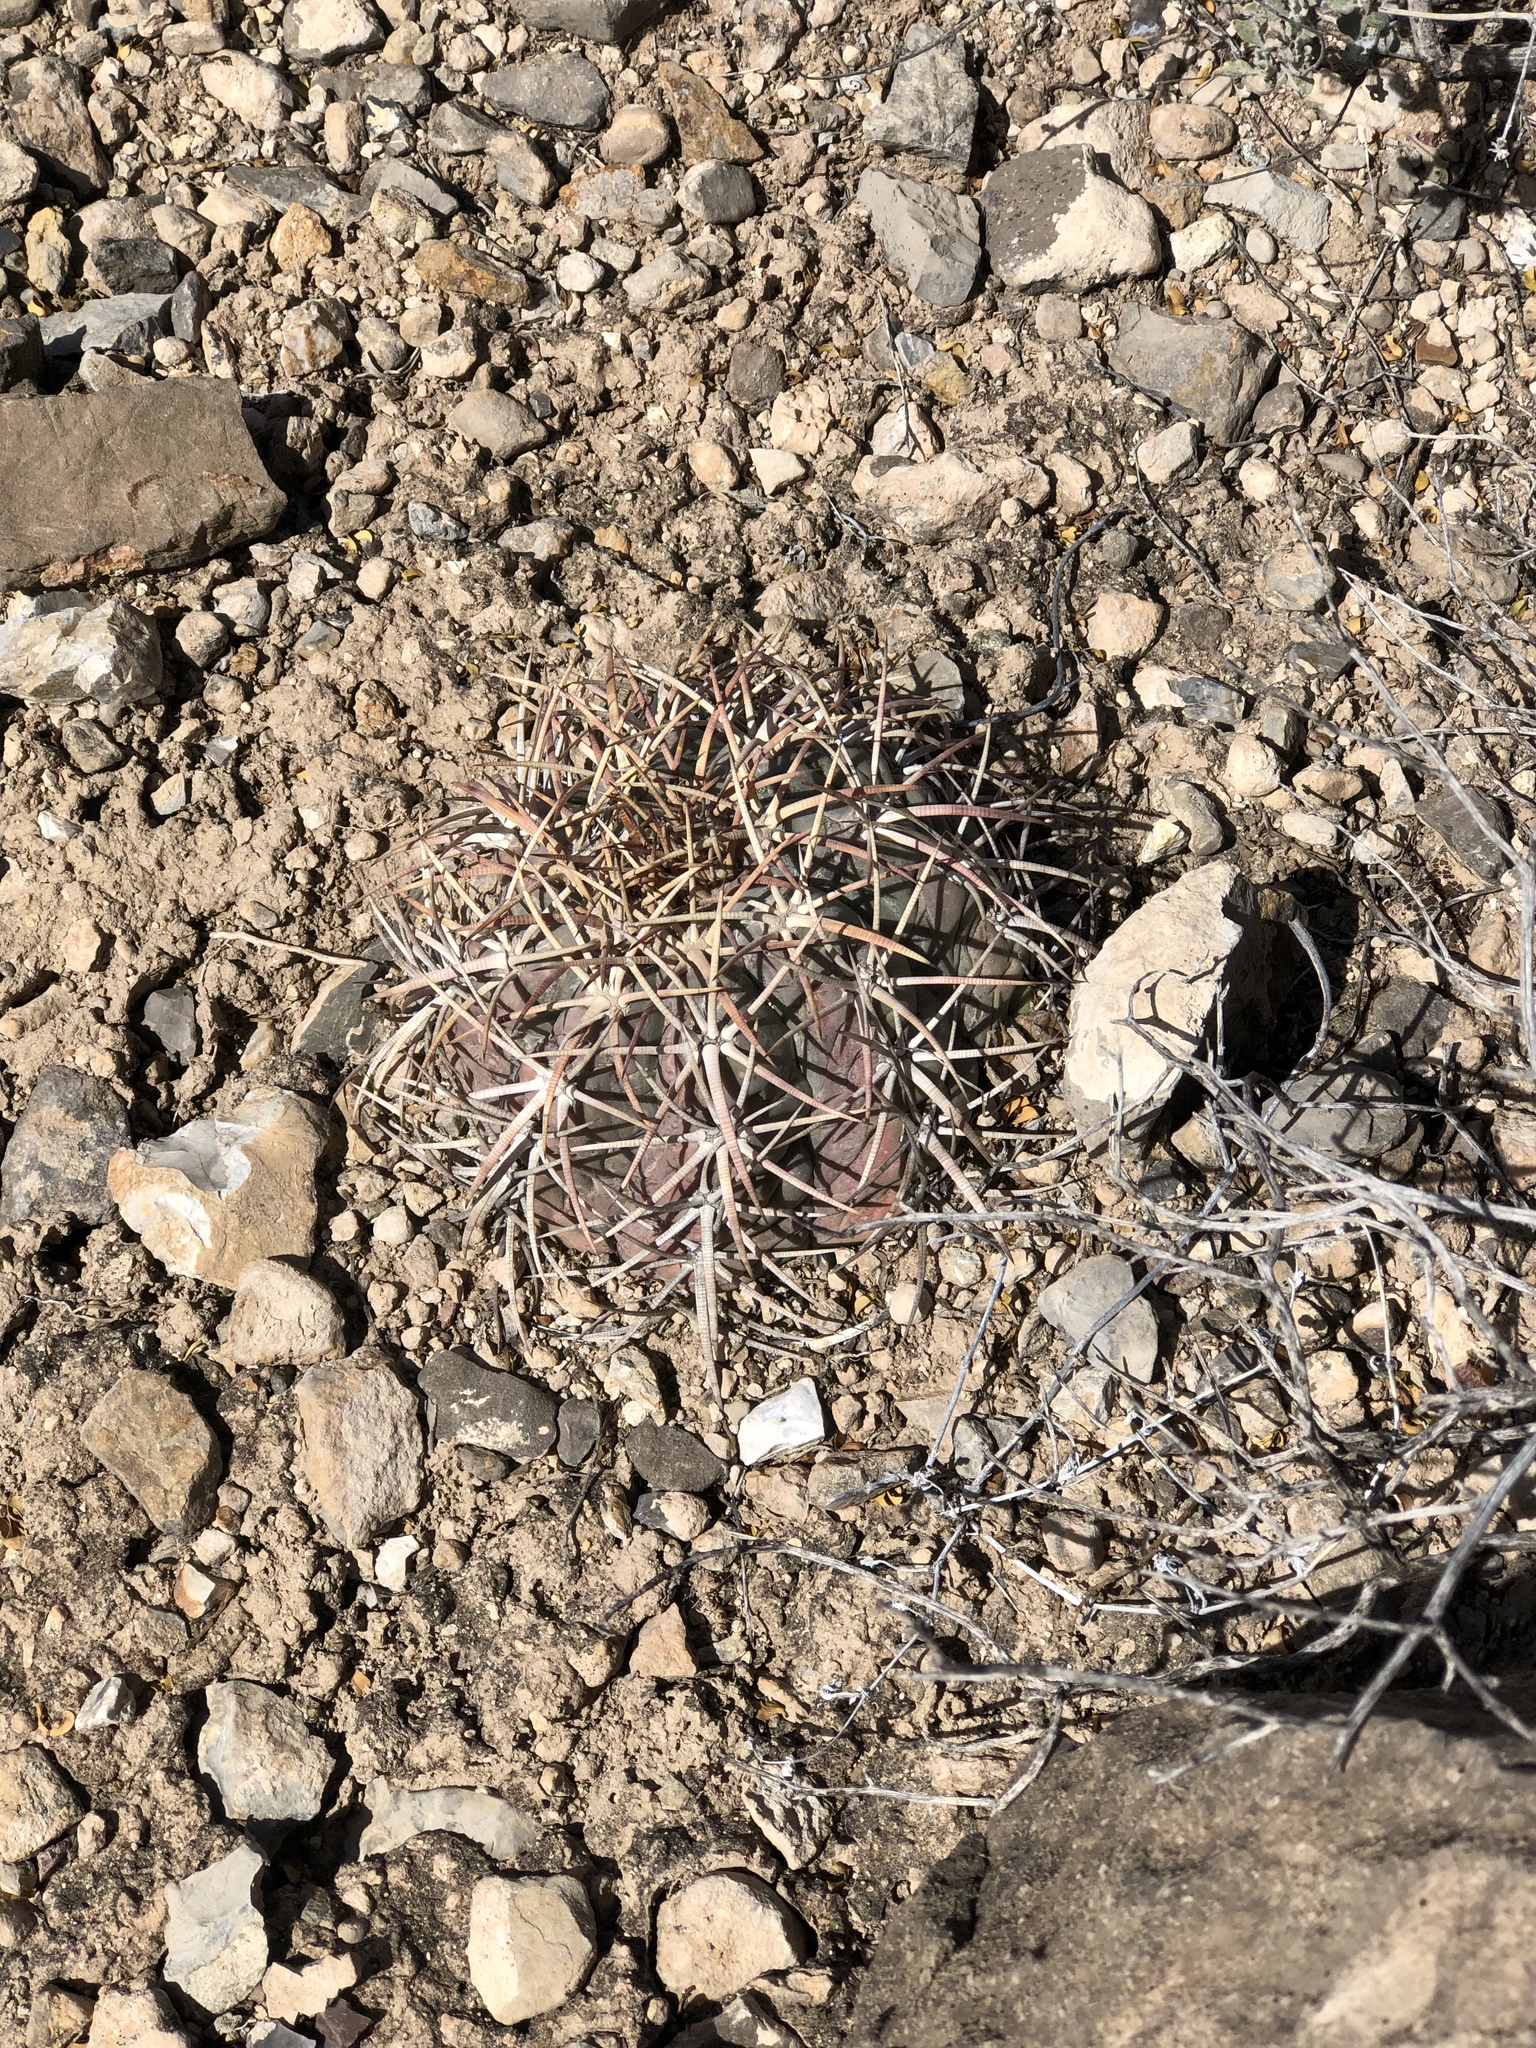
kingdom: Plantae
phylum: Tracheophyta
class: Magnoliopsida
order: Caryophyllales
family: Cactaceae
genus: Echinocactus
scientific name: Echinocactus horizonthalonius
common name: Devilshead
